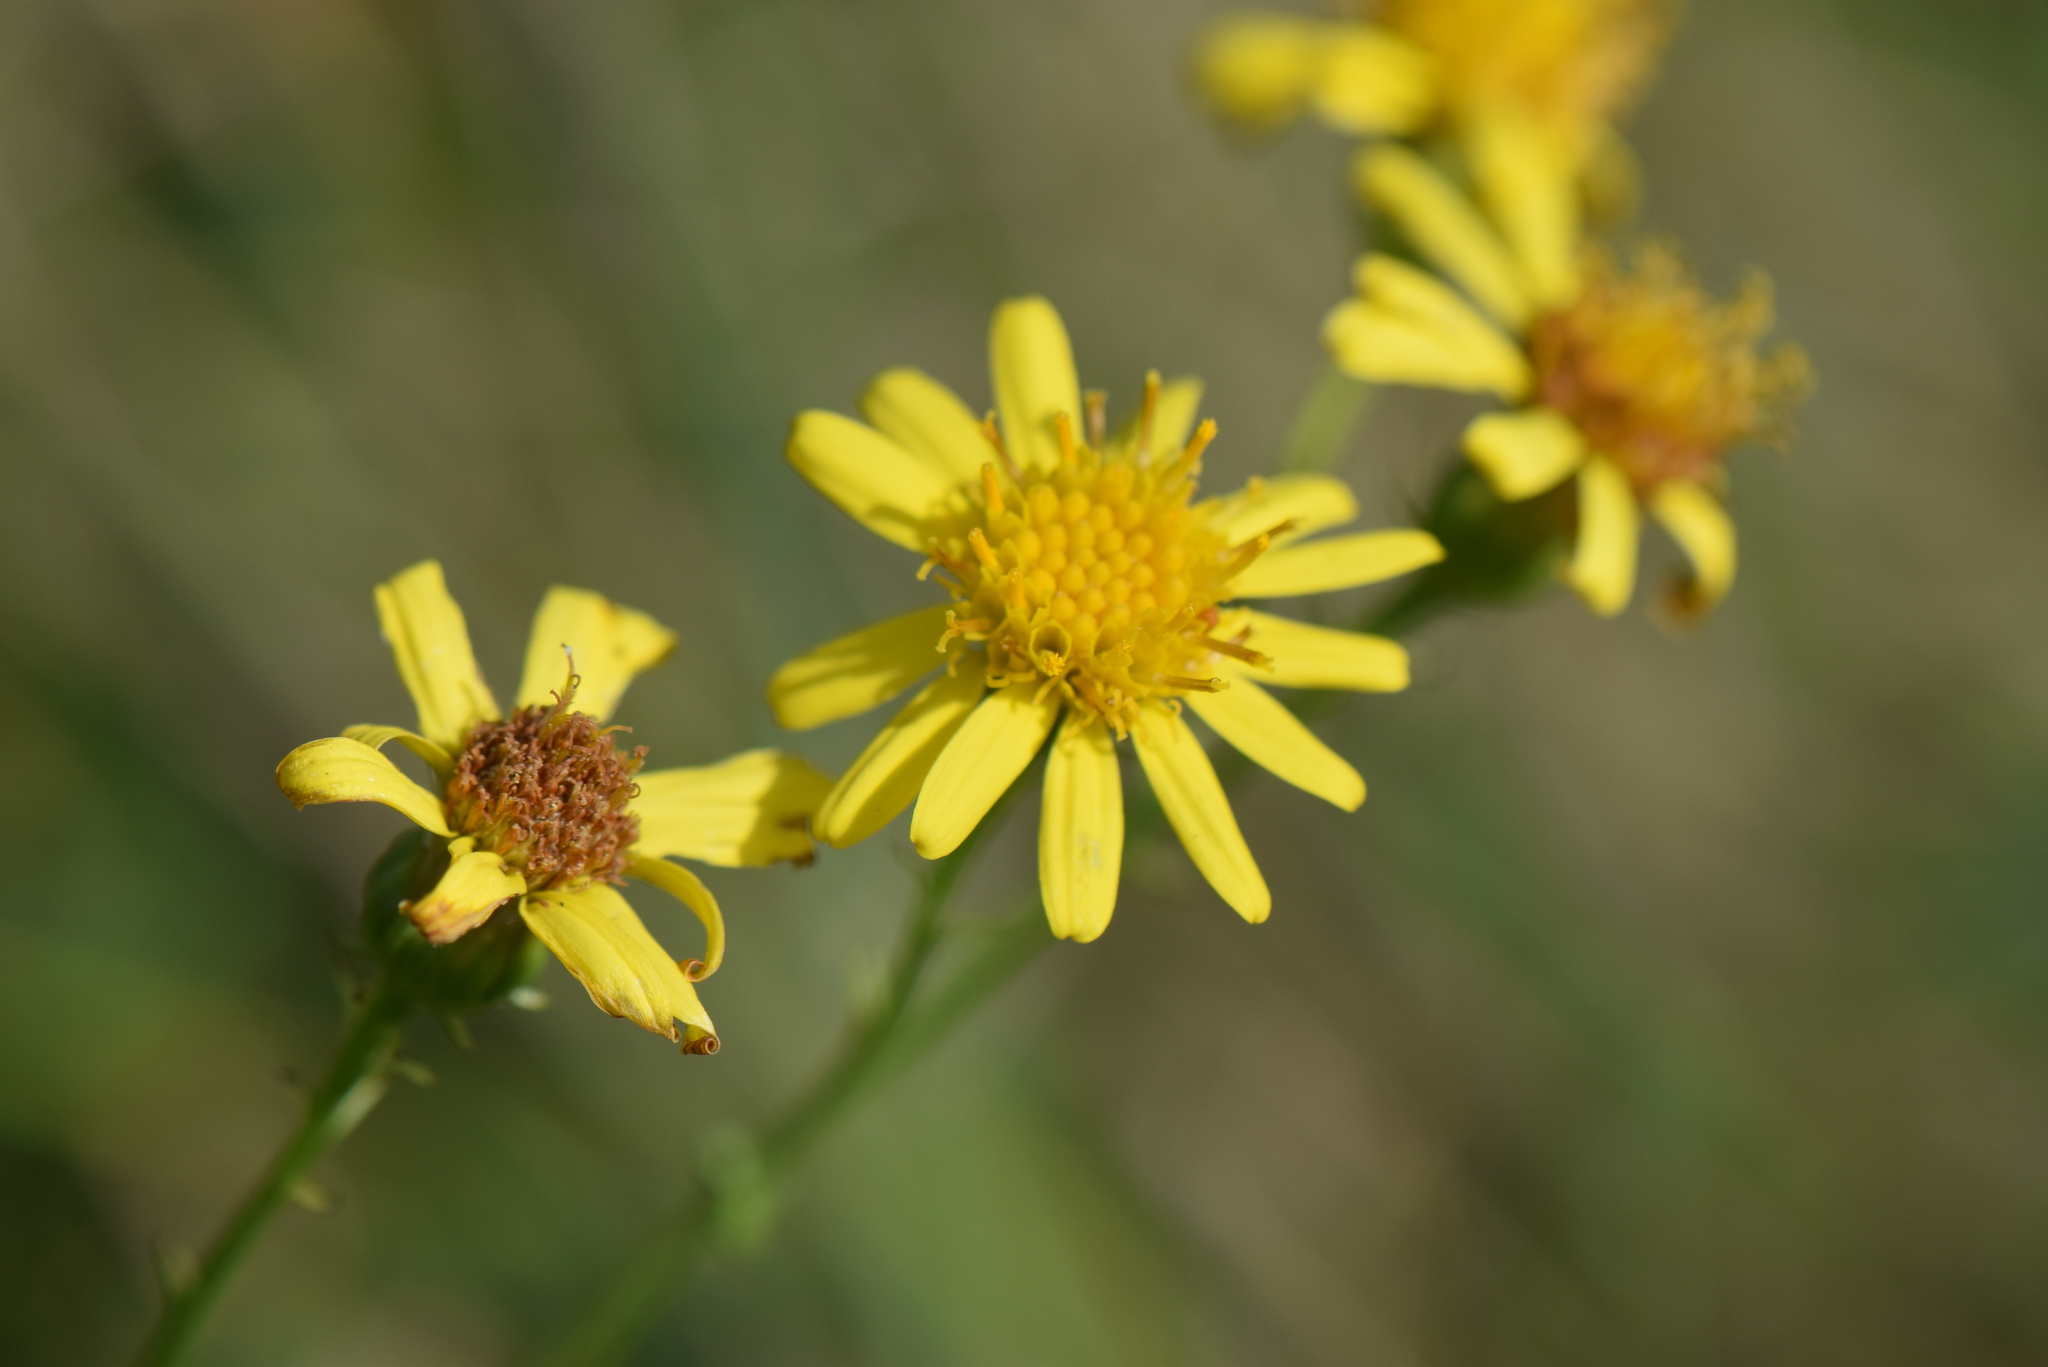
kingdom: Plantae
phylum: Tracheophyta
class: Magnoliopsida
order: Asterales
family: Asteraceae
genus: Jacobaea
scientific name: Jacobaea erucifolia
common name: Hoary ragwort
